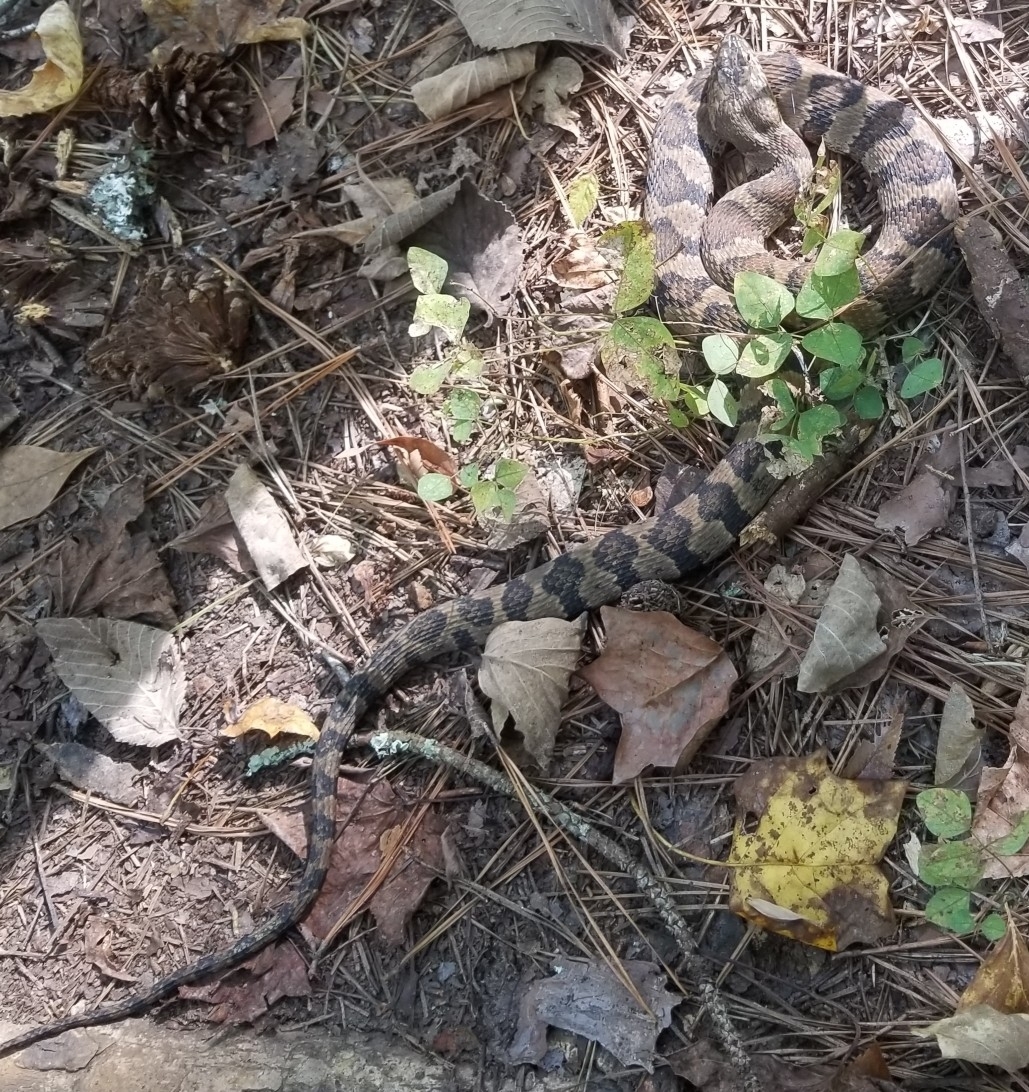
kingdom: Animalia
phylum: Chordata
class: Squamata
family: Colubridae
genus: Nerodia
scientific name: Nerodia sipedon
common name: Northern water snake
